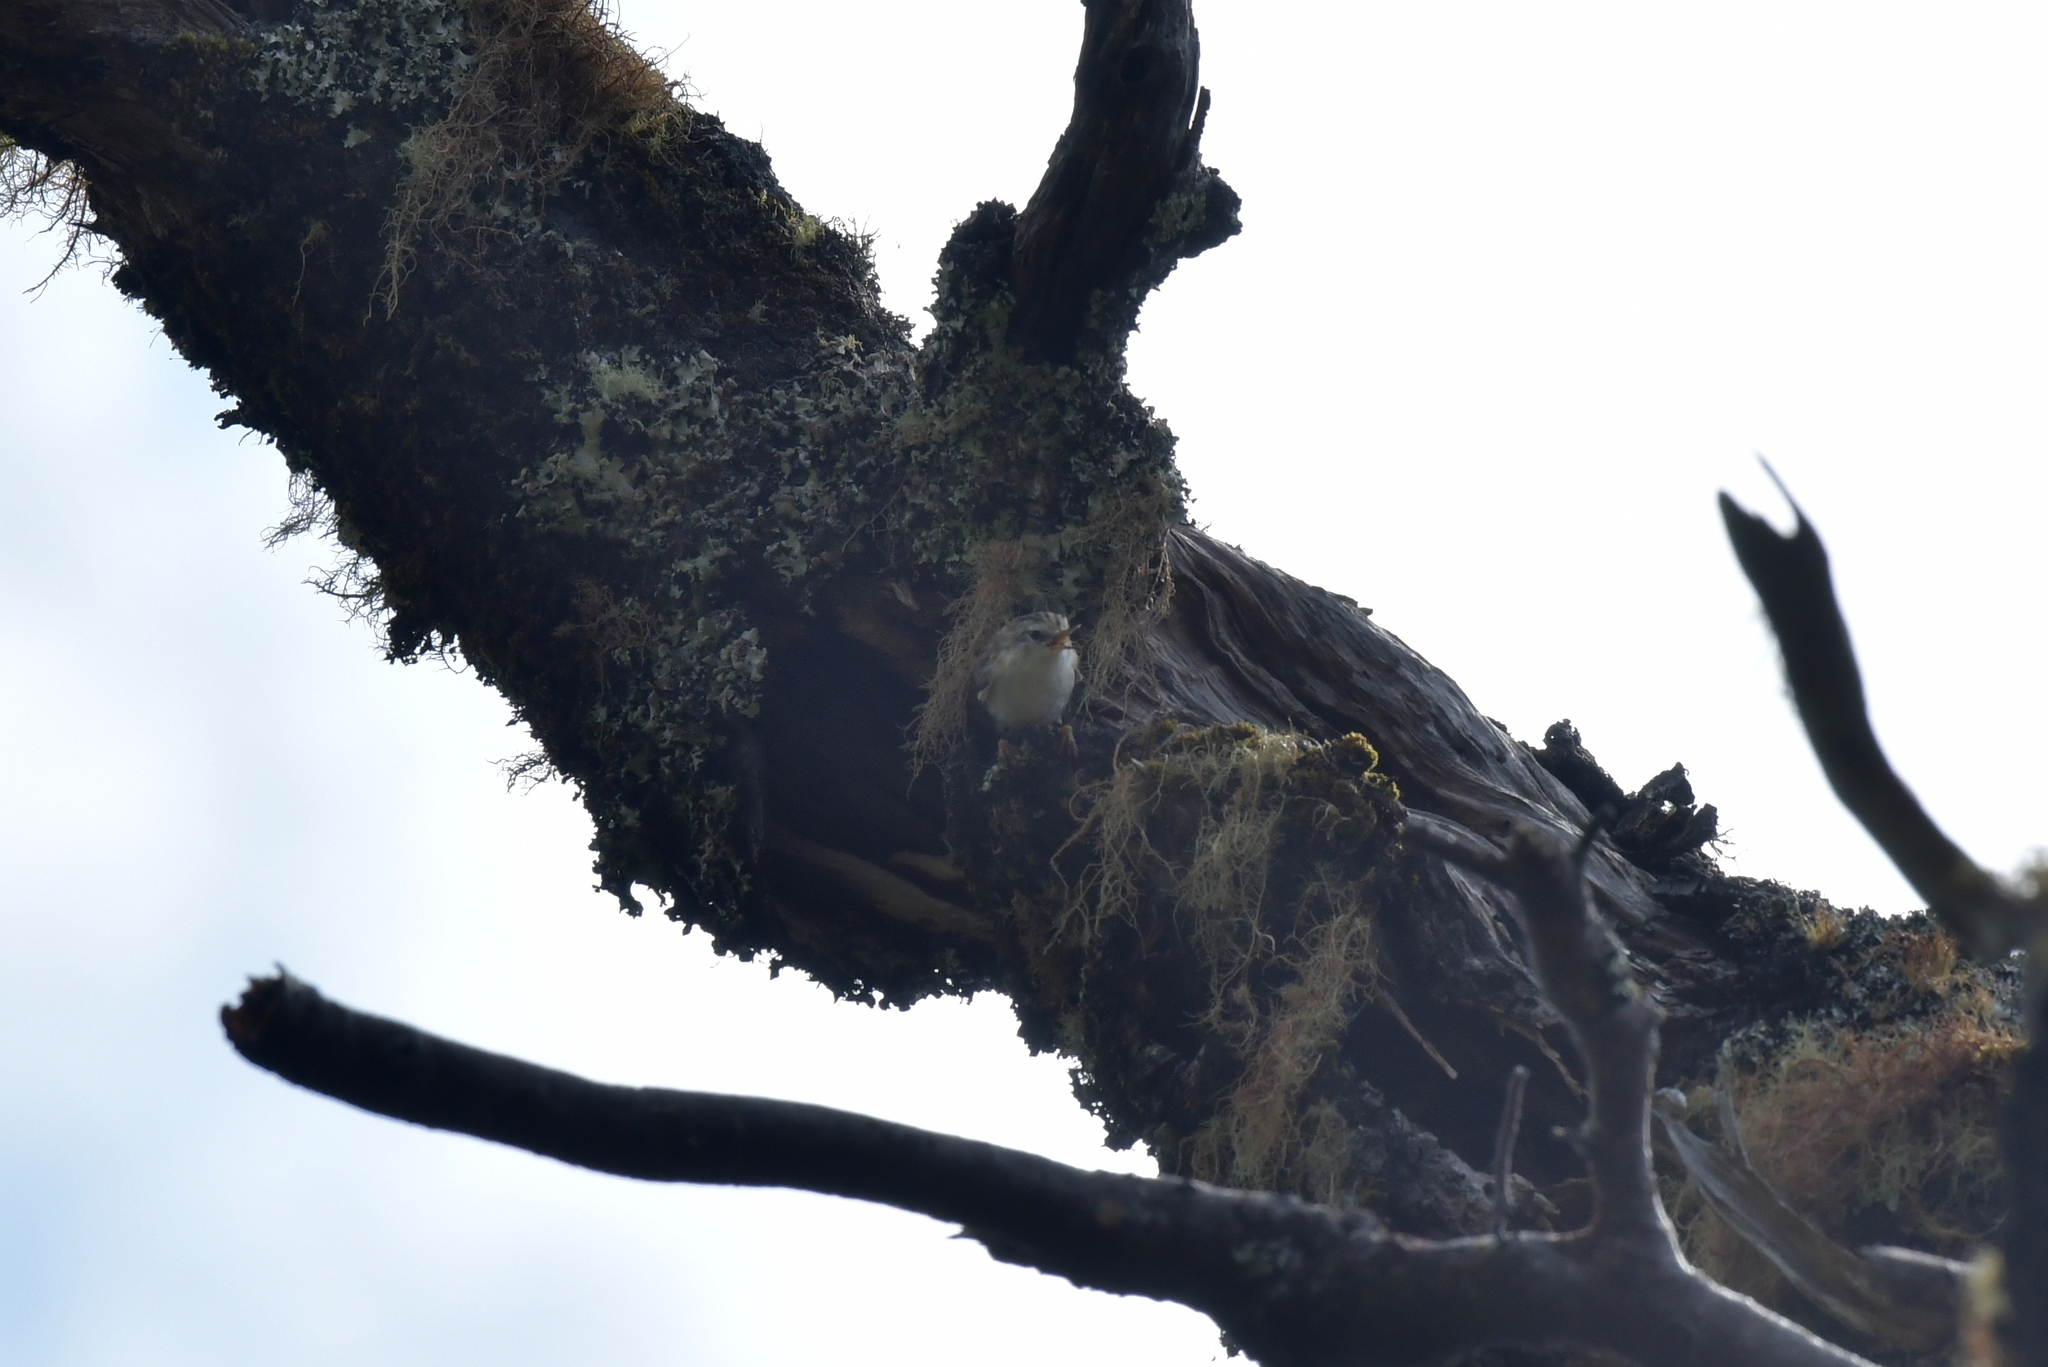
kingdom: Animalia
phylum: Chordata
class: Aves
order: Passeriformes
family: Acanthisittidae
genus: Acanthisitta
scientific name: Acanthisitta chloris
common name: Rifleman
